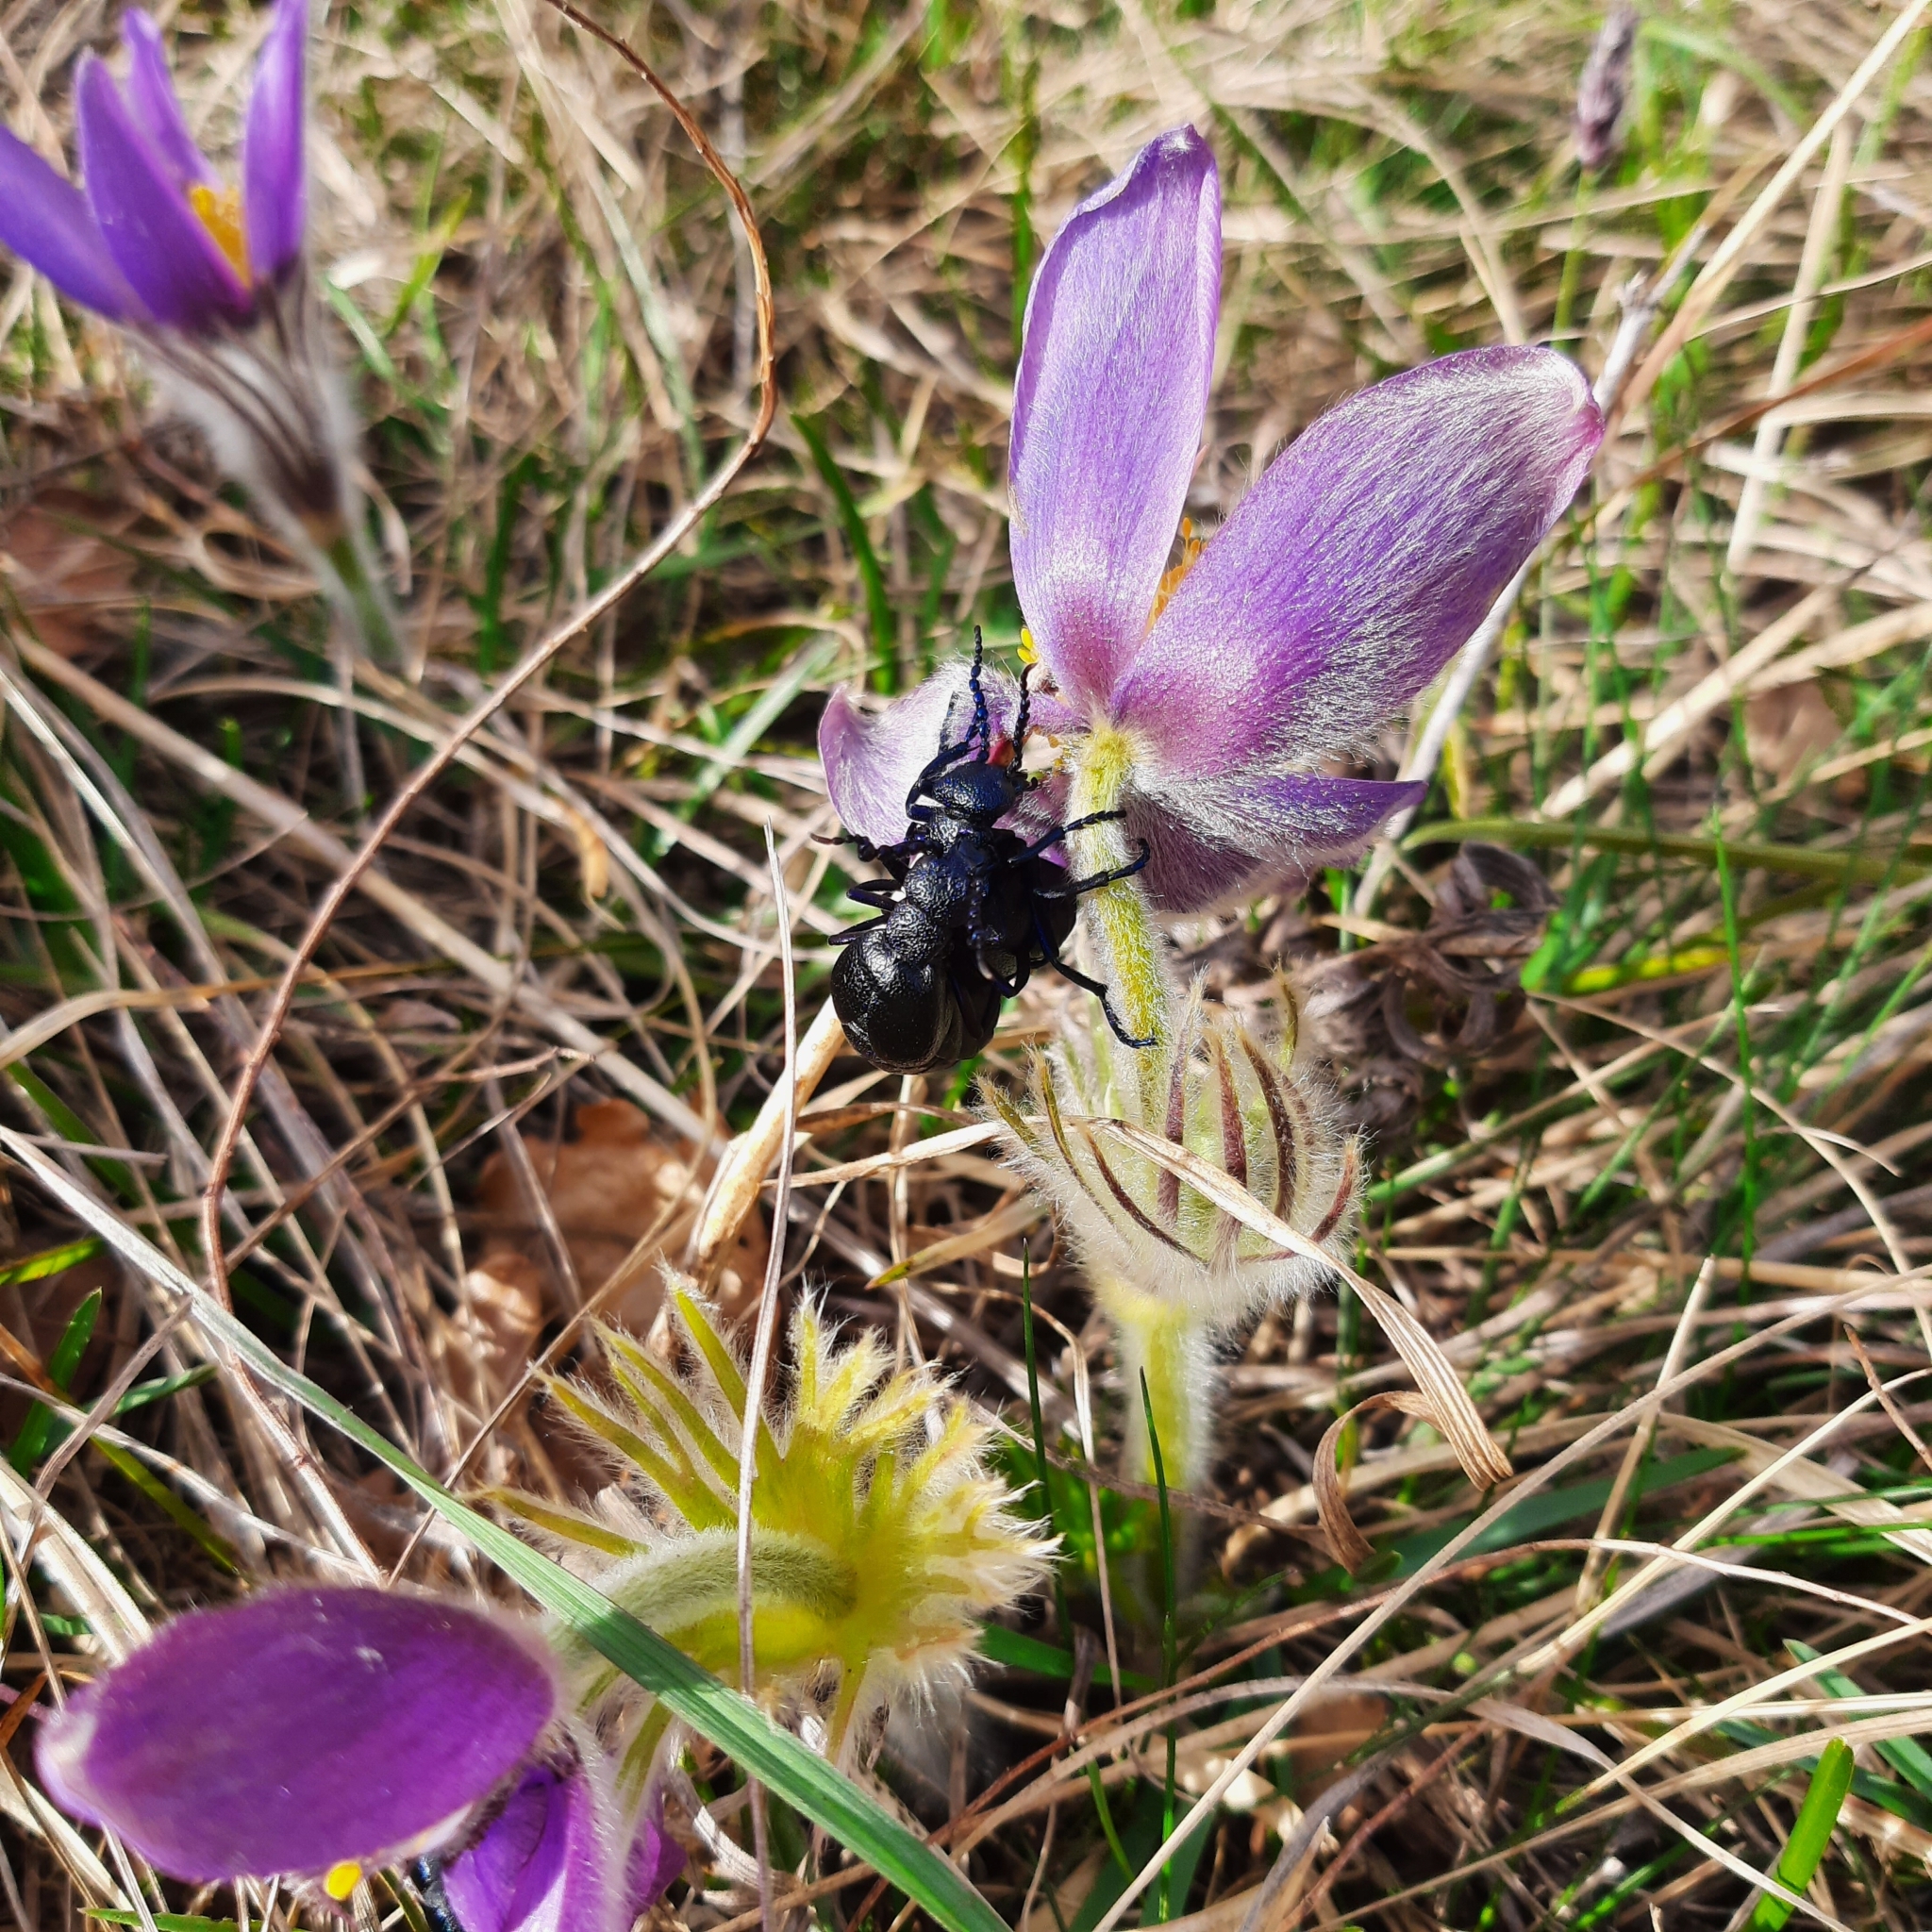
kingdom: Animalia
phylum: Arthropoda
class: Insecta
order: Coleoptera
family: Meloidae
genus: Meloe
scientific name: Meloe proscarabaeus
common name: Black oil-beetle
